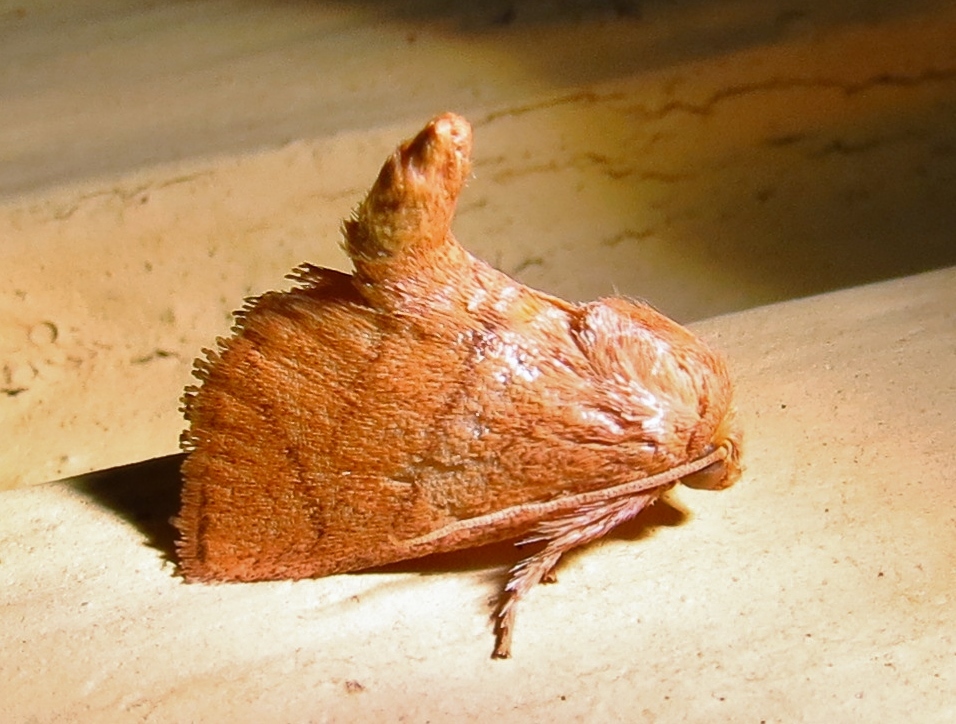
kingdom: Animalia
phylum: Arthropoda
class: Insecta
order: Lepidoptera
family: Limacodidae
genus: Apoda
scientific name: Apoda y-inversa
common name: Yellow-collared slug moth
